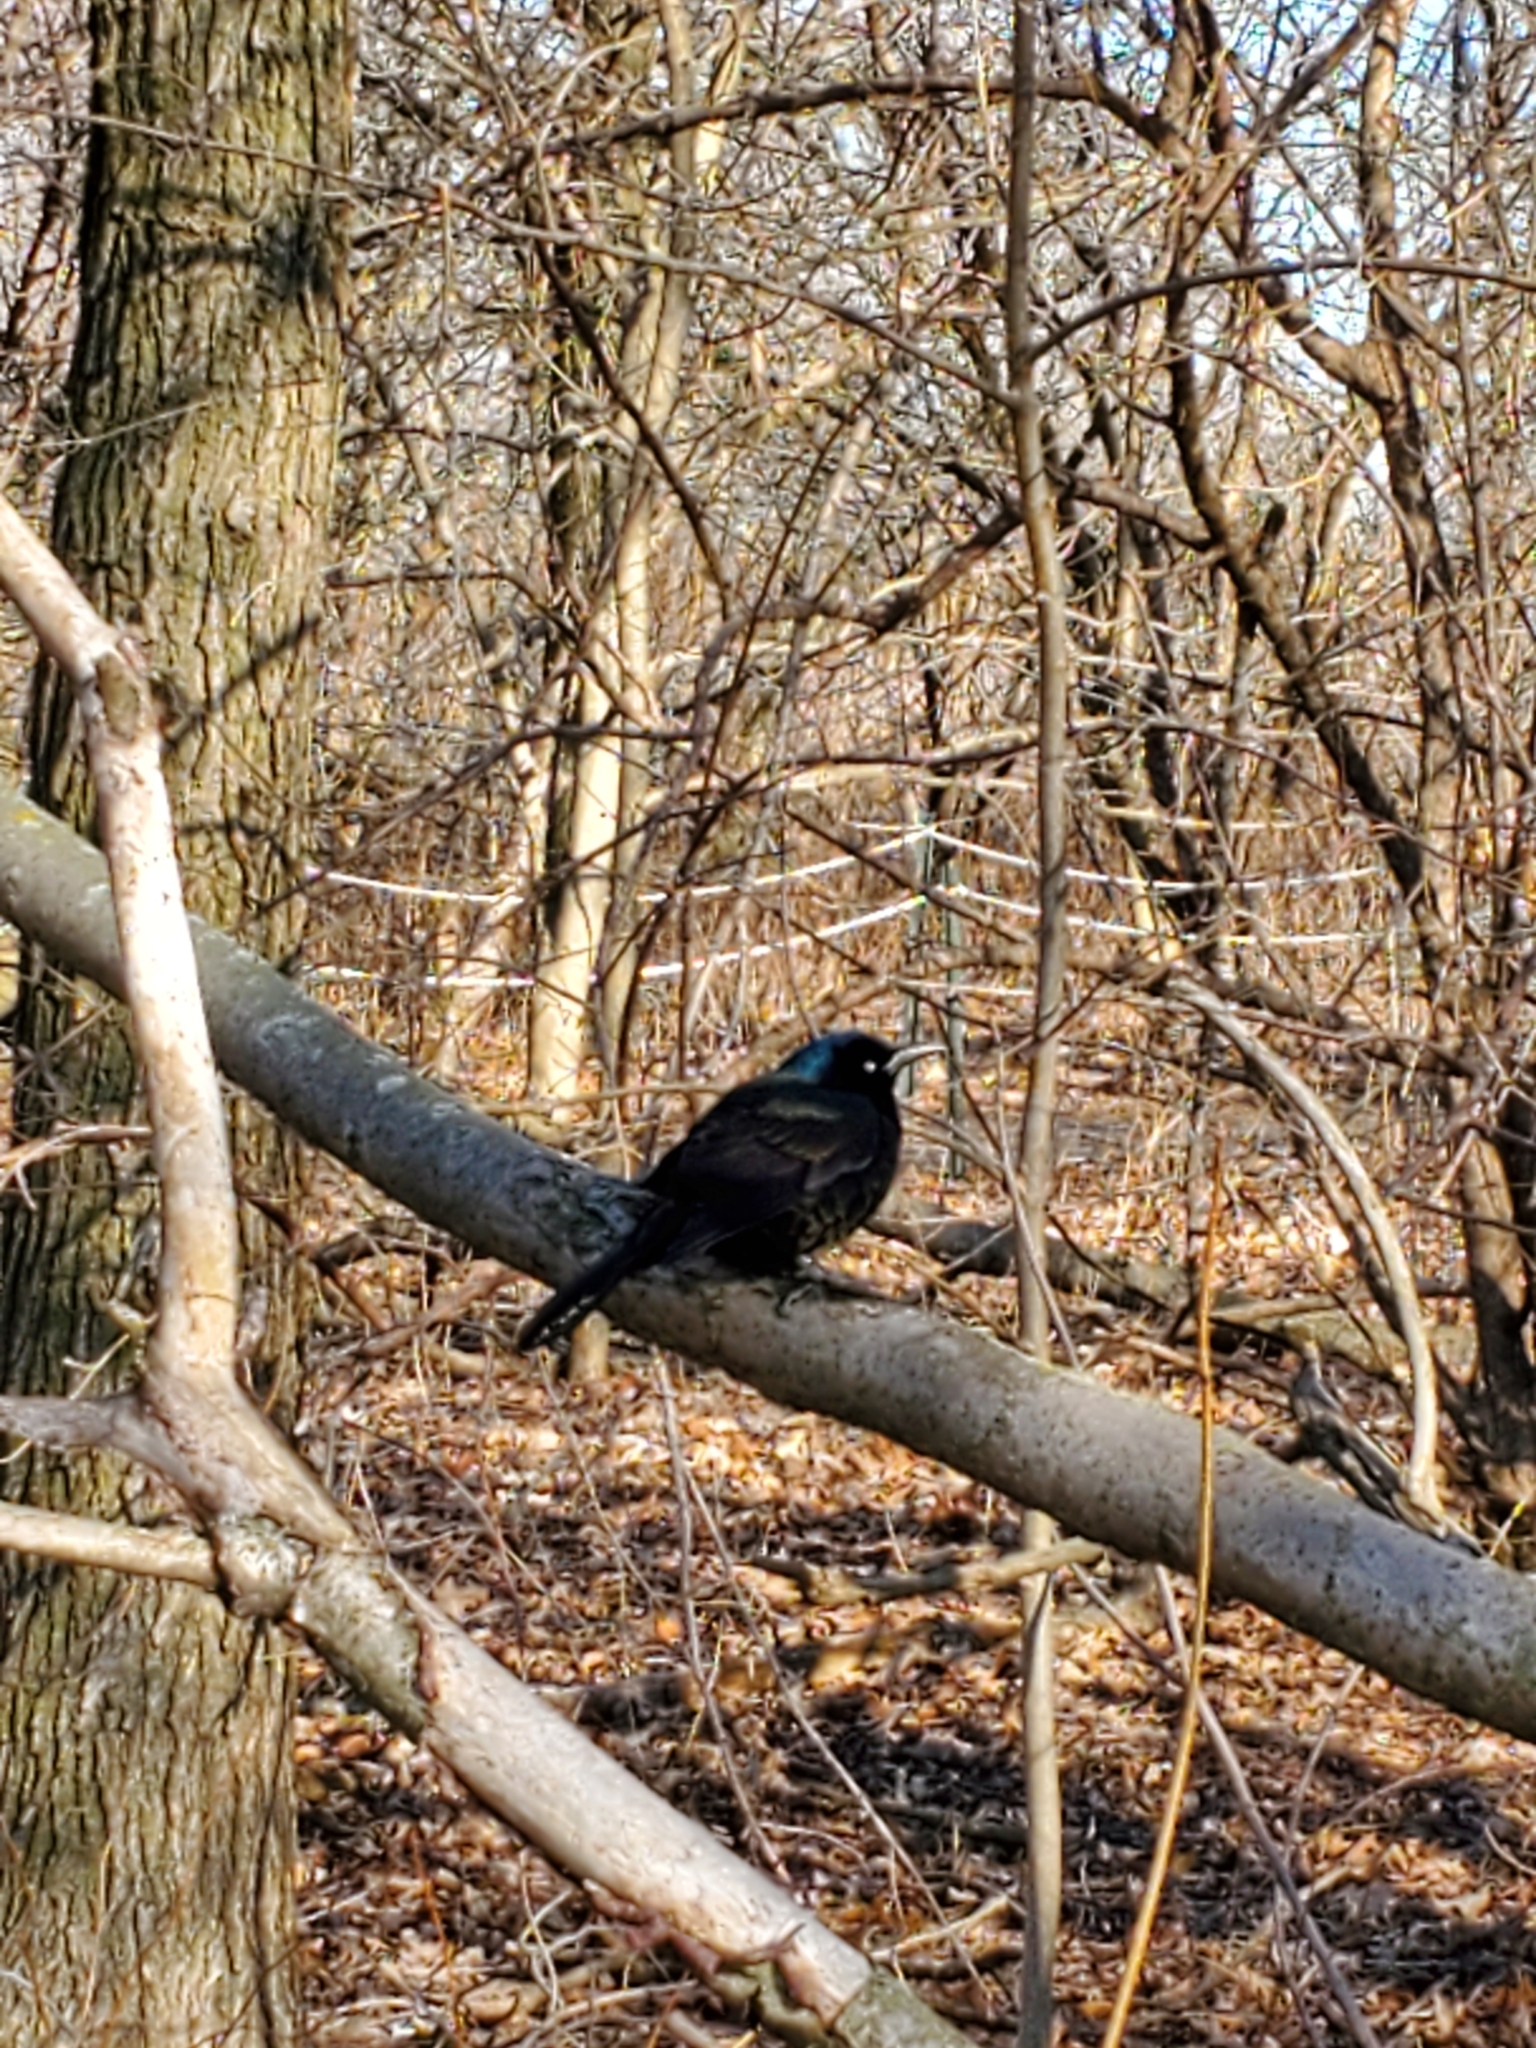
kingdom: Animalia
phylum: Chordata
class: Aves
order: Passeriformes
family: Icteridae
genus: Quiscalus
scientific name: Quiscalus quiscula
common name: Common grackle
